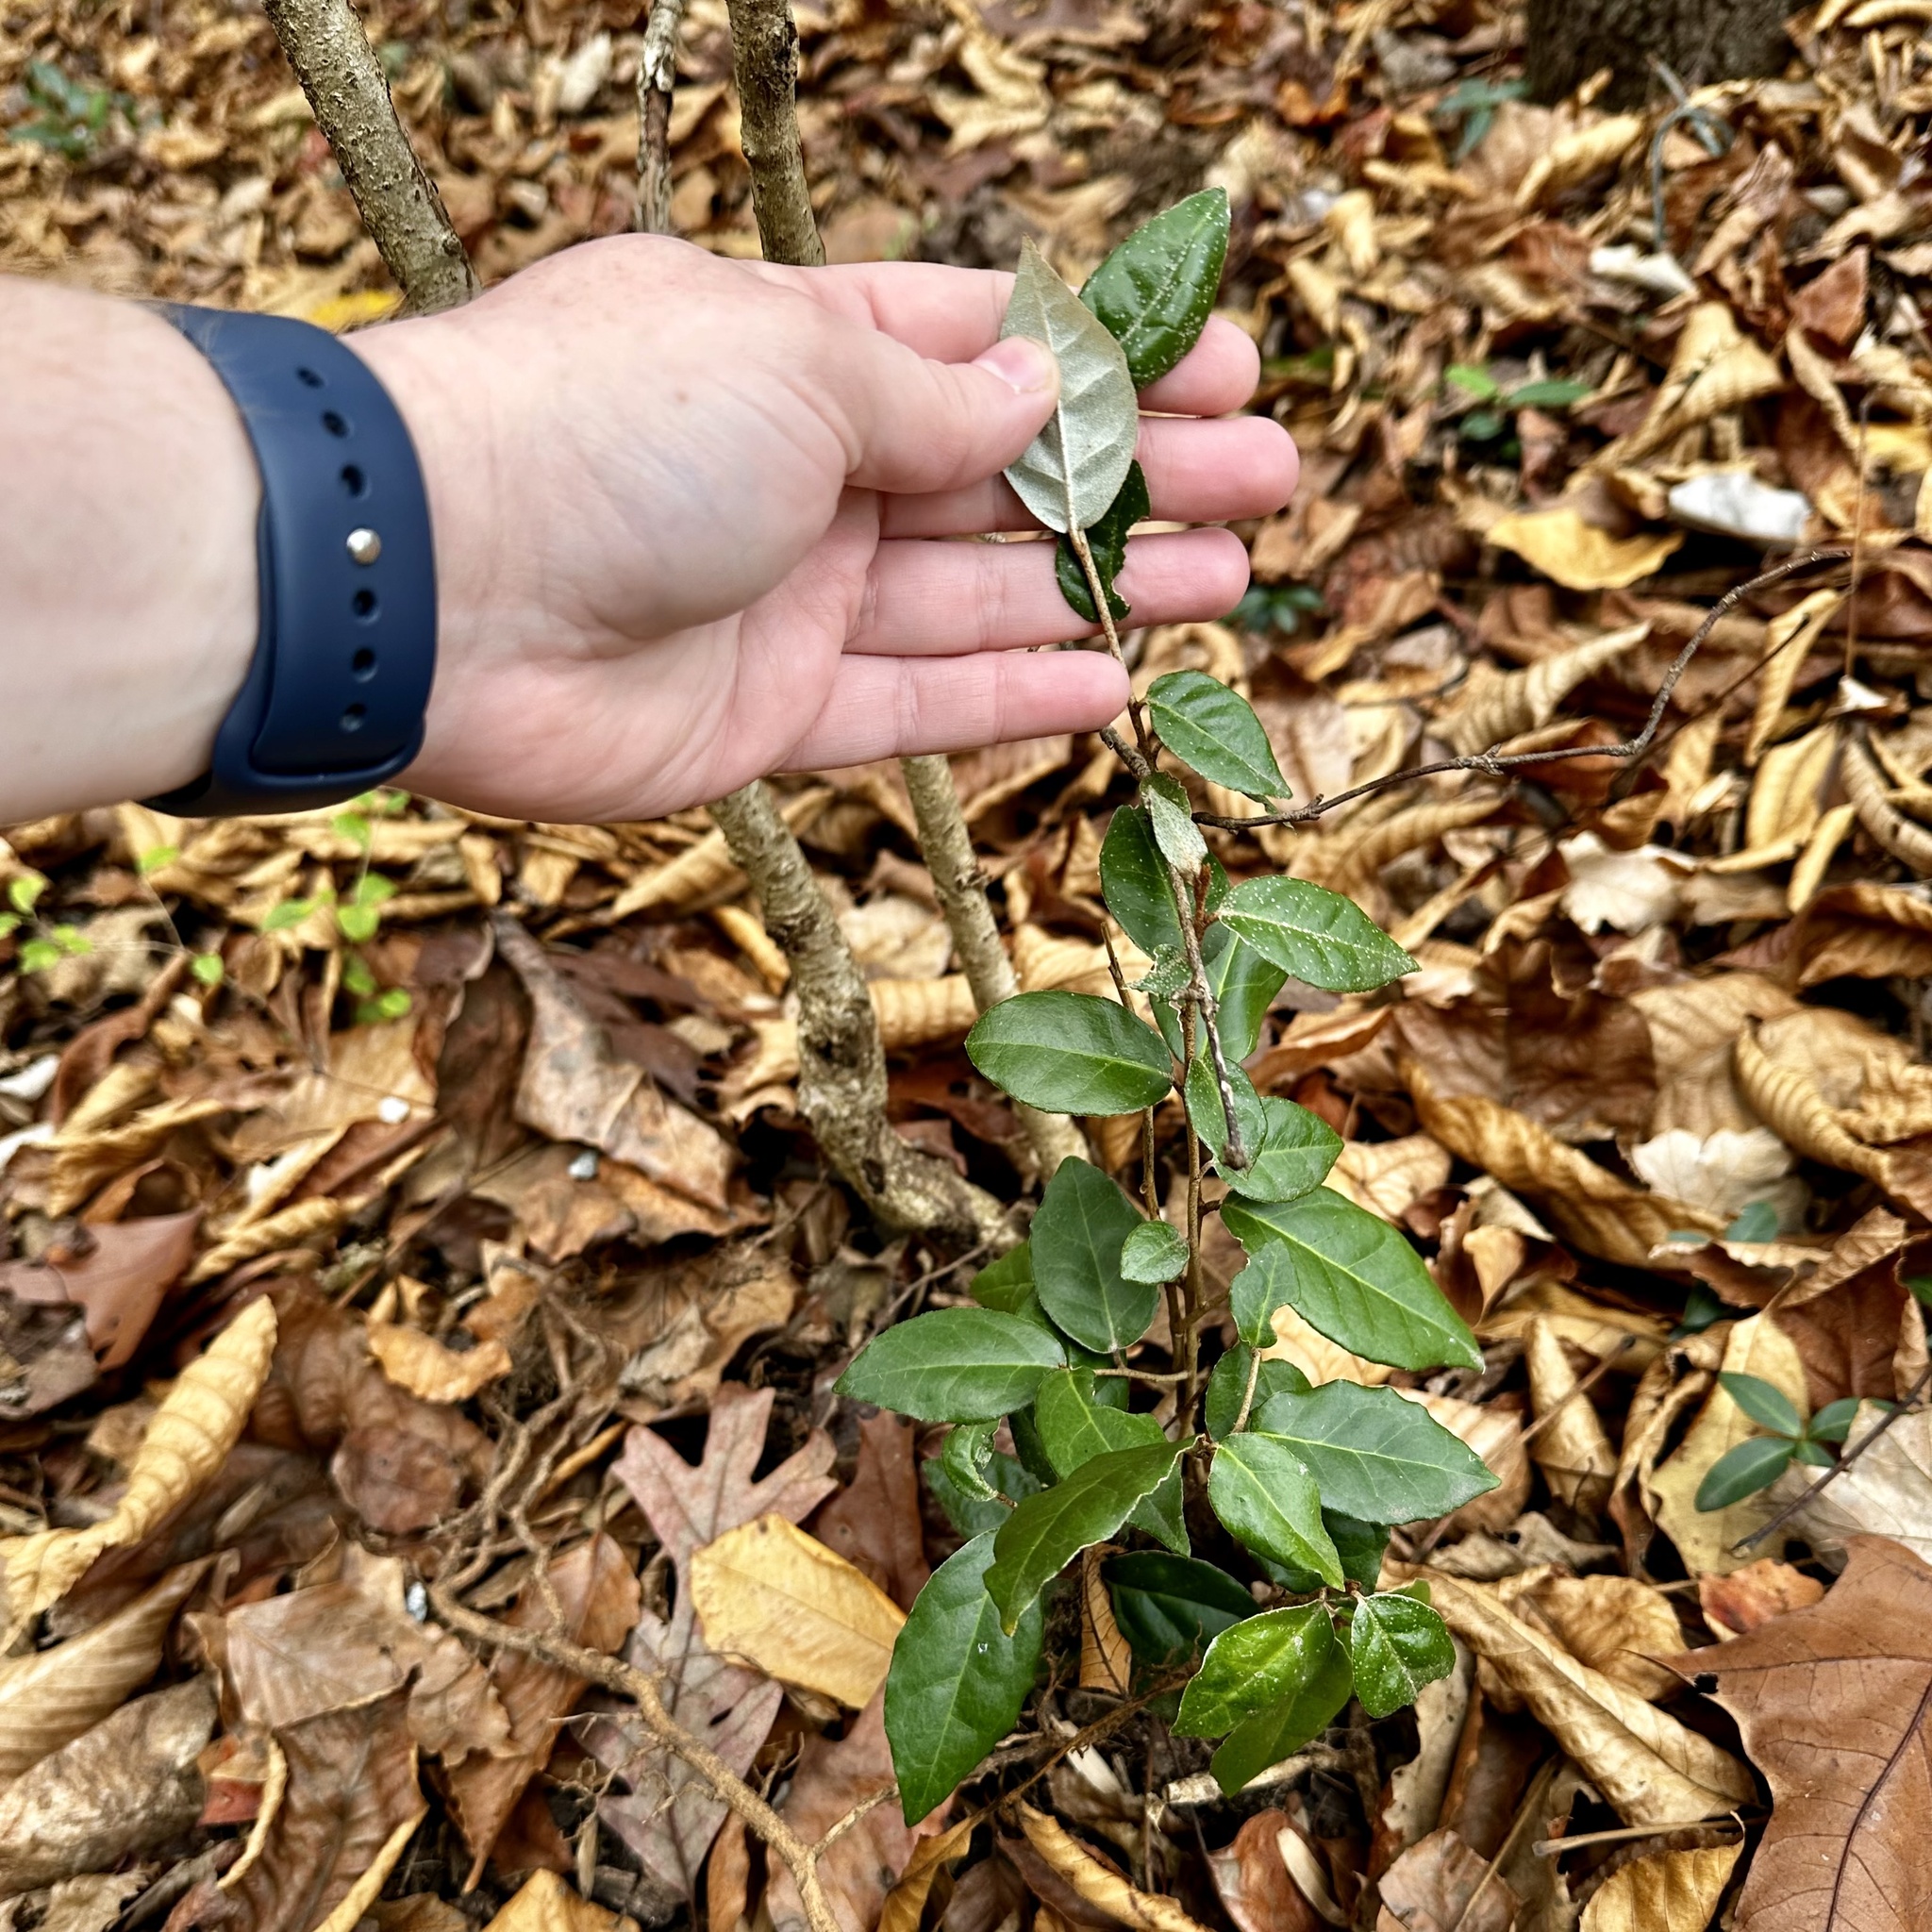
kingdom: Plantae
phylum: Tracheophyta
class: Magnoliopsida
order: Rosales
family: Elaeagnaceae
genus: Elaeagnus
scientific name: Elaeagnus pungens
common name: Spiny oleaster
